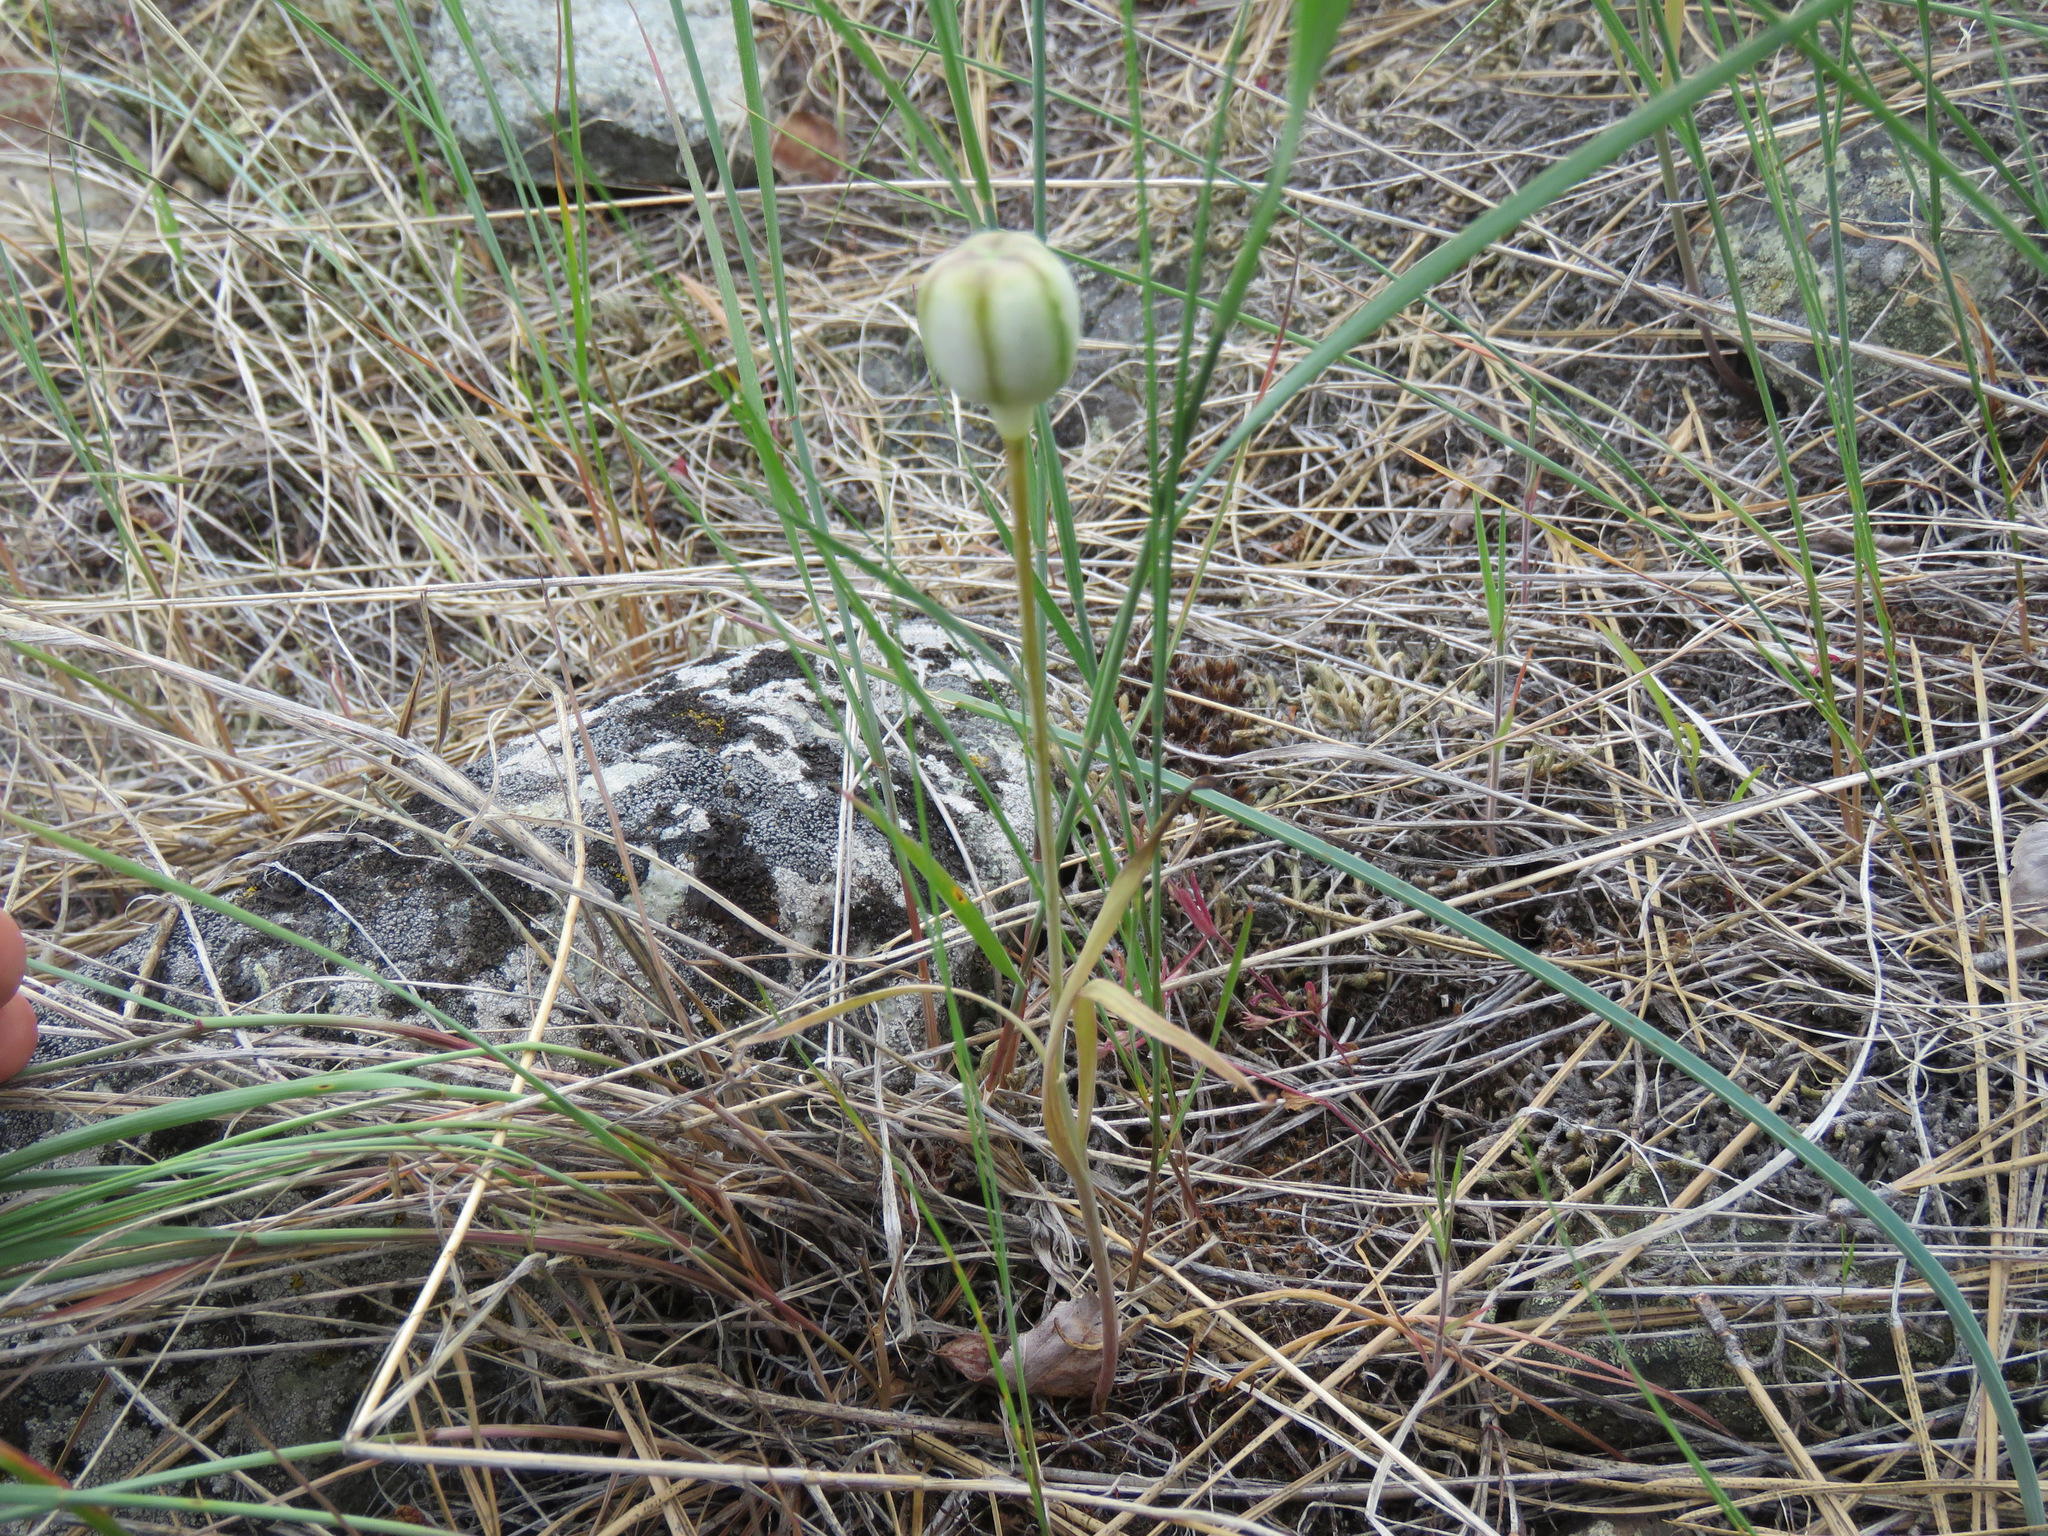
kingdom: Plantae
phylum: Tracheophyta
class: Liliopsida
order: Liliales
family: Liliaceae
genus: Fritillaria
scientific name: Fritillaria pudica
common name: Yellow fritillary
